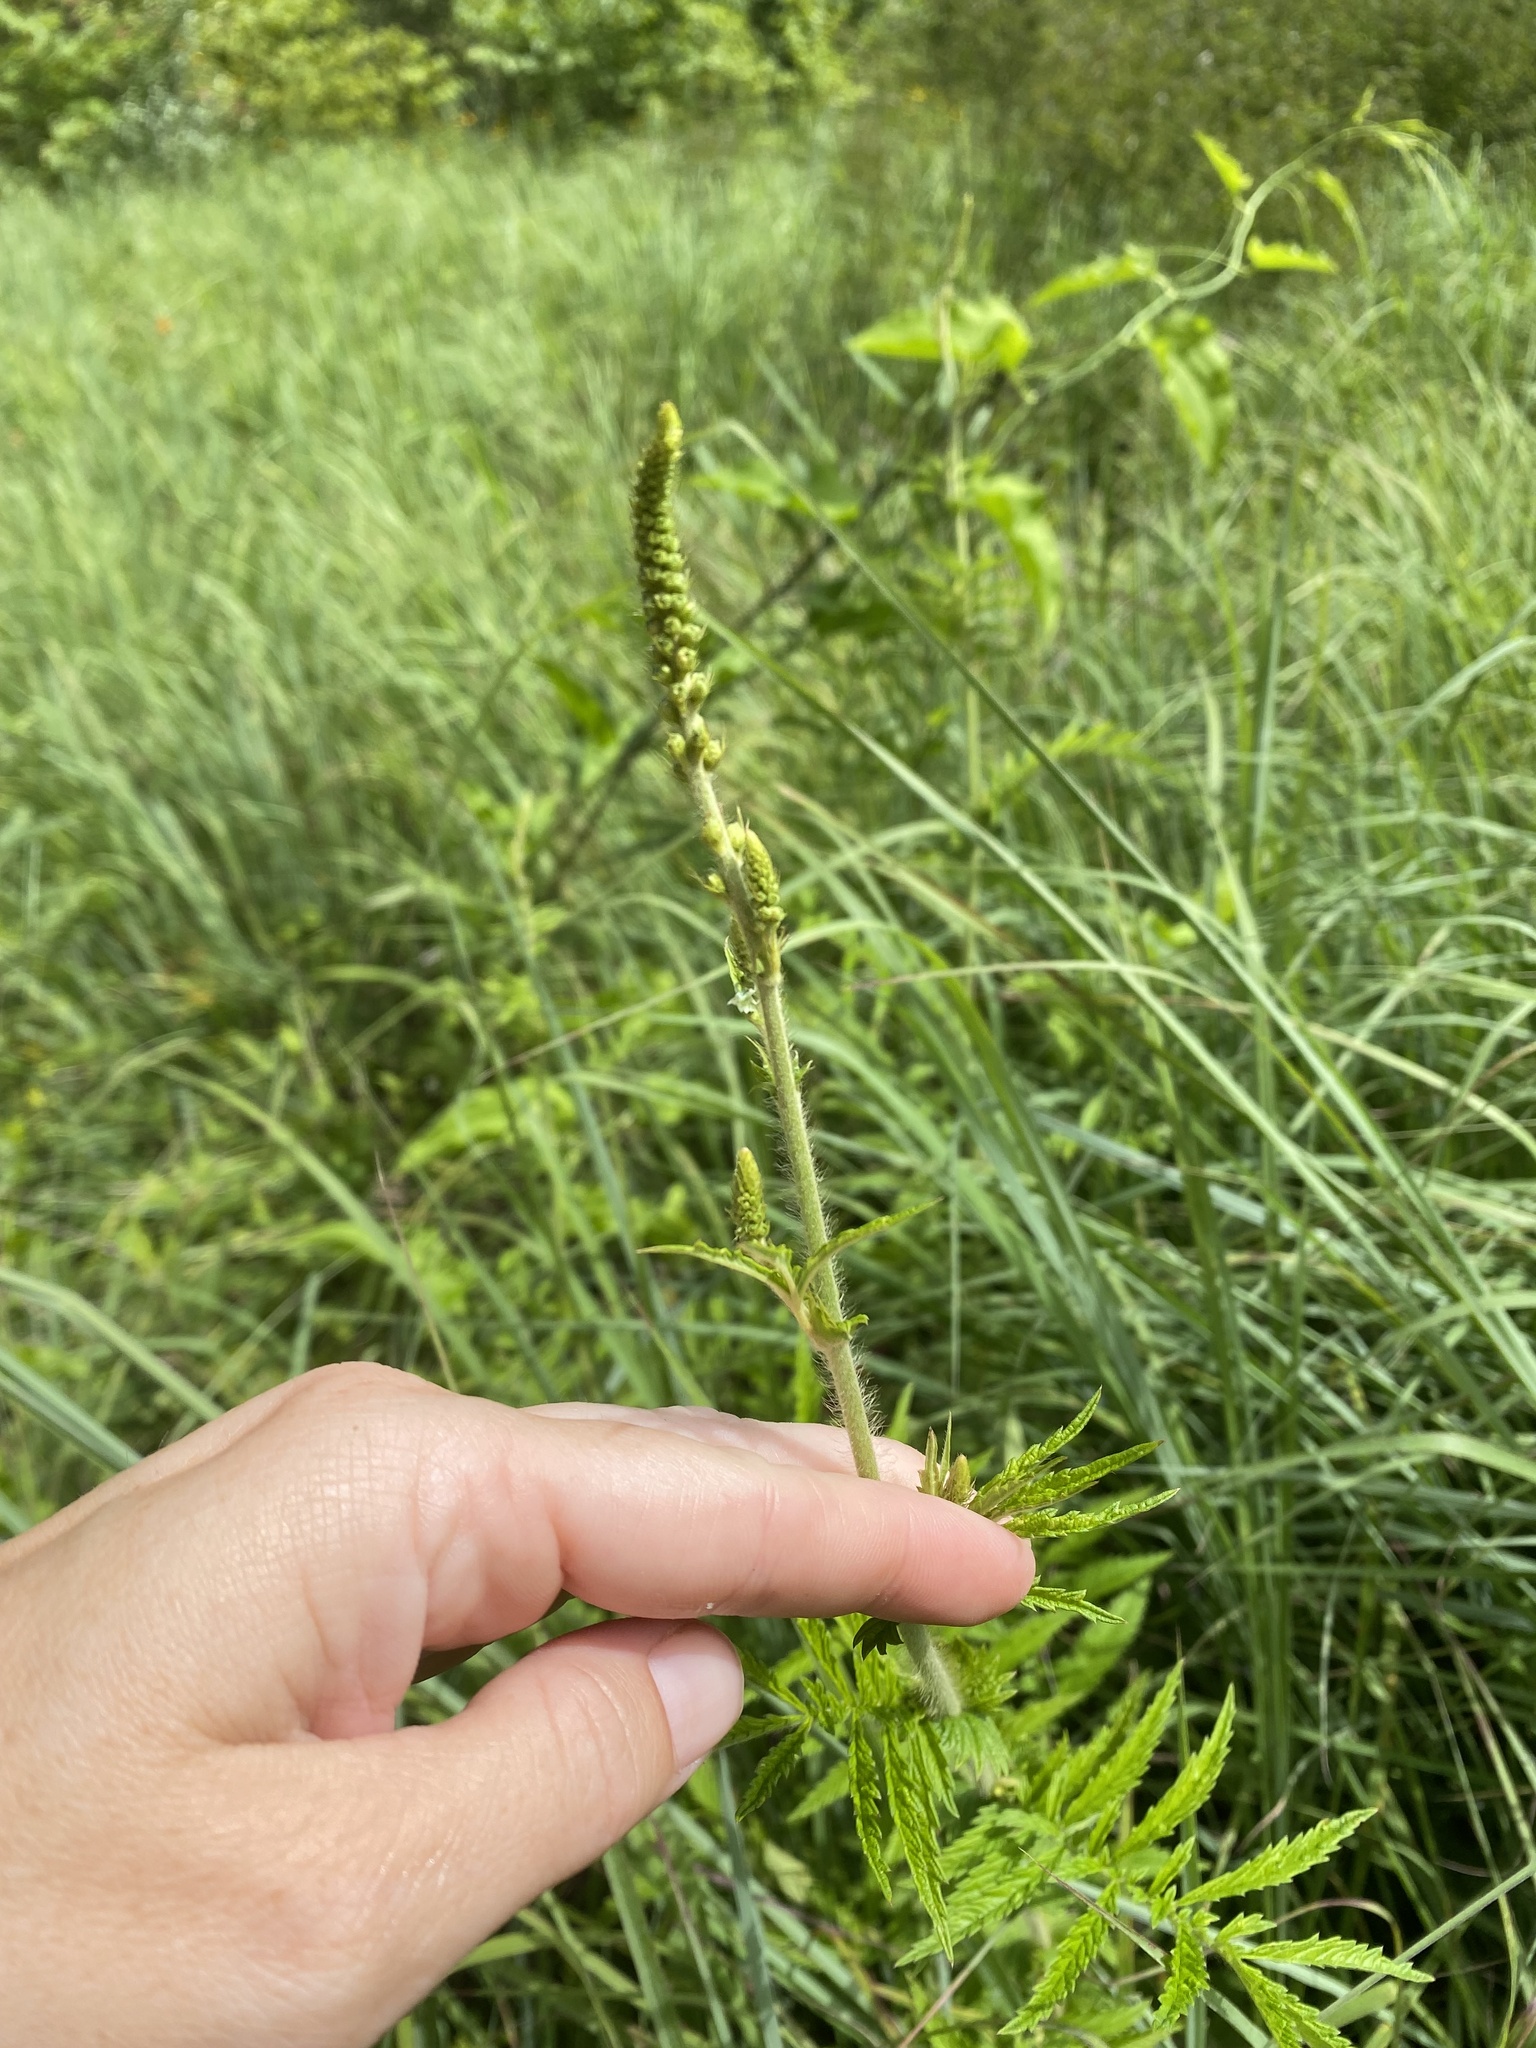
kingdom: Plantae
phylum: Tracheophyta
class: Magnoliopsida
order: Rosales
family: Rosaceae
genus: Agrimonia
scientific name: Agrimonia parviflora
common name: Harvest-lice
